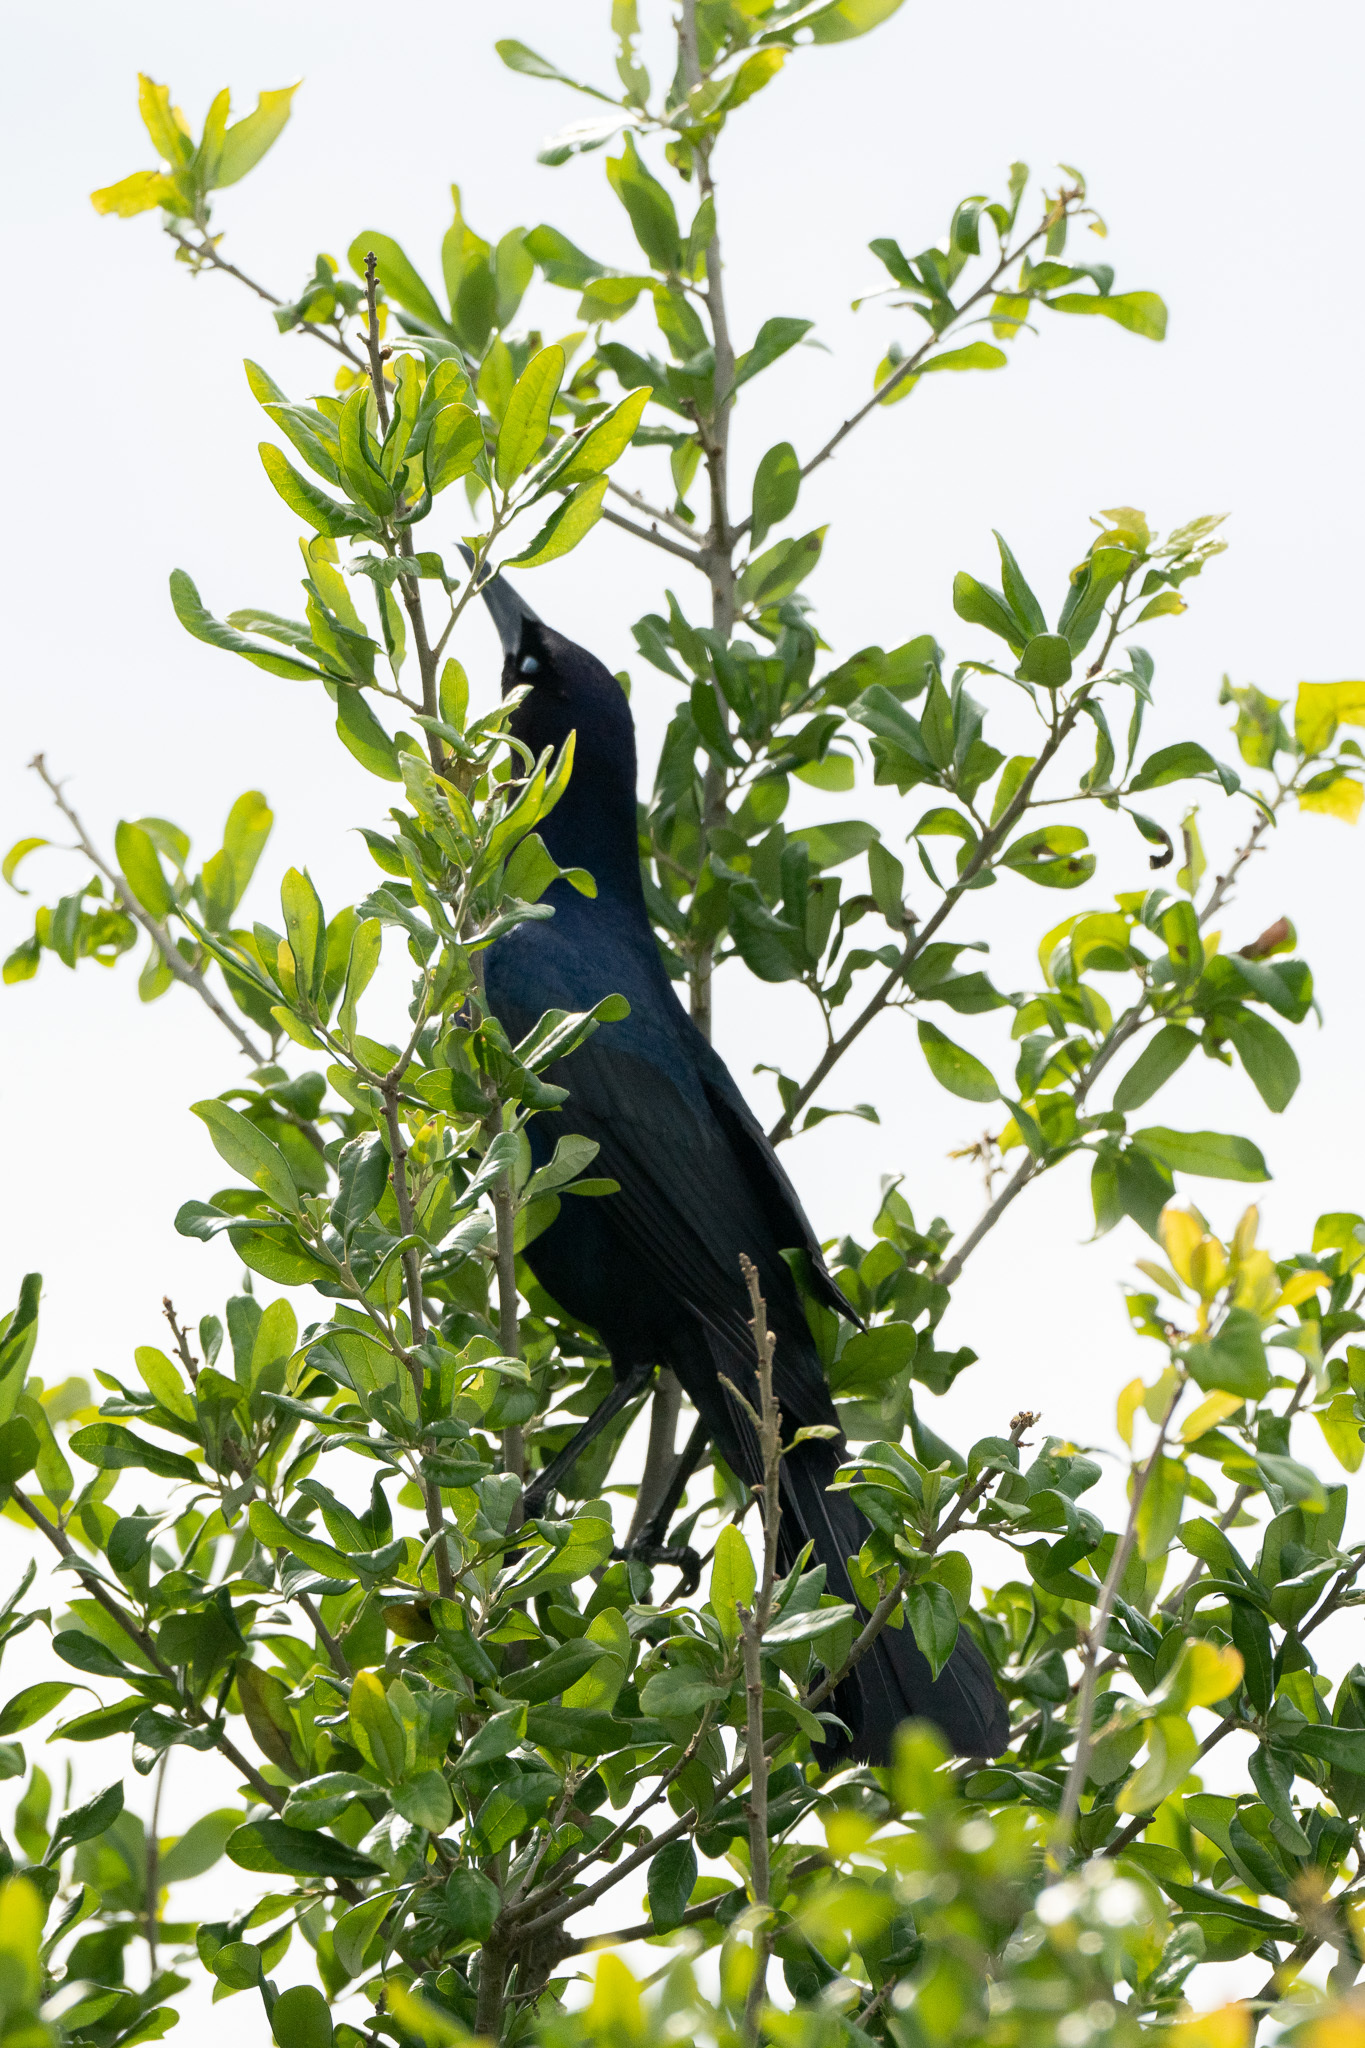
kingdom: Animalia
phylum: Chordata
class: Aves
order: Passeriformes
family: Icteridae
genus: Quiscalus
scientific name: Quiscalus major
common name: Boat-tailed grackle
